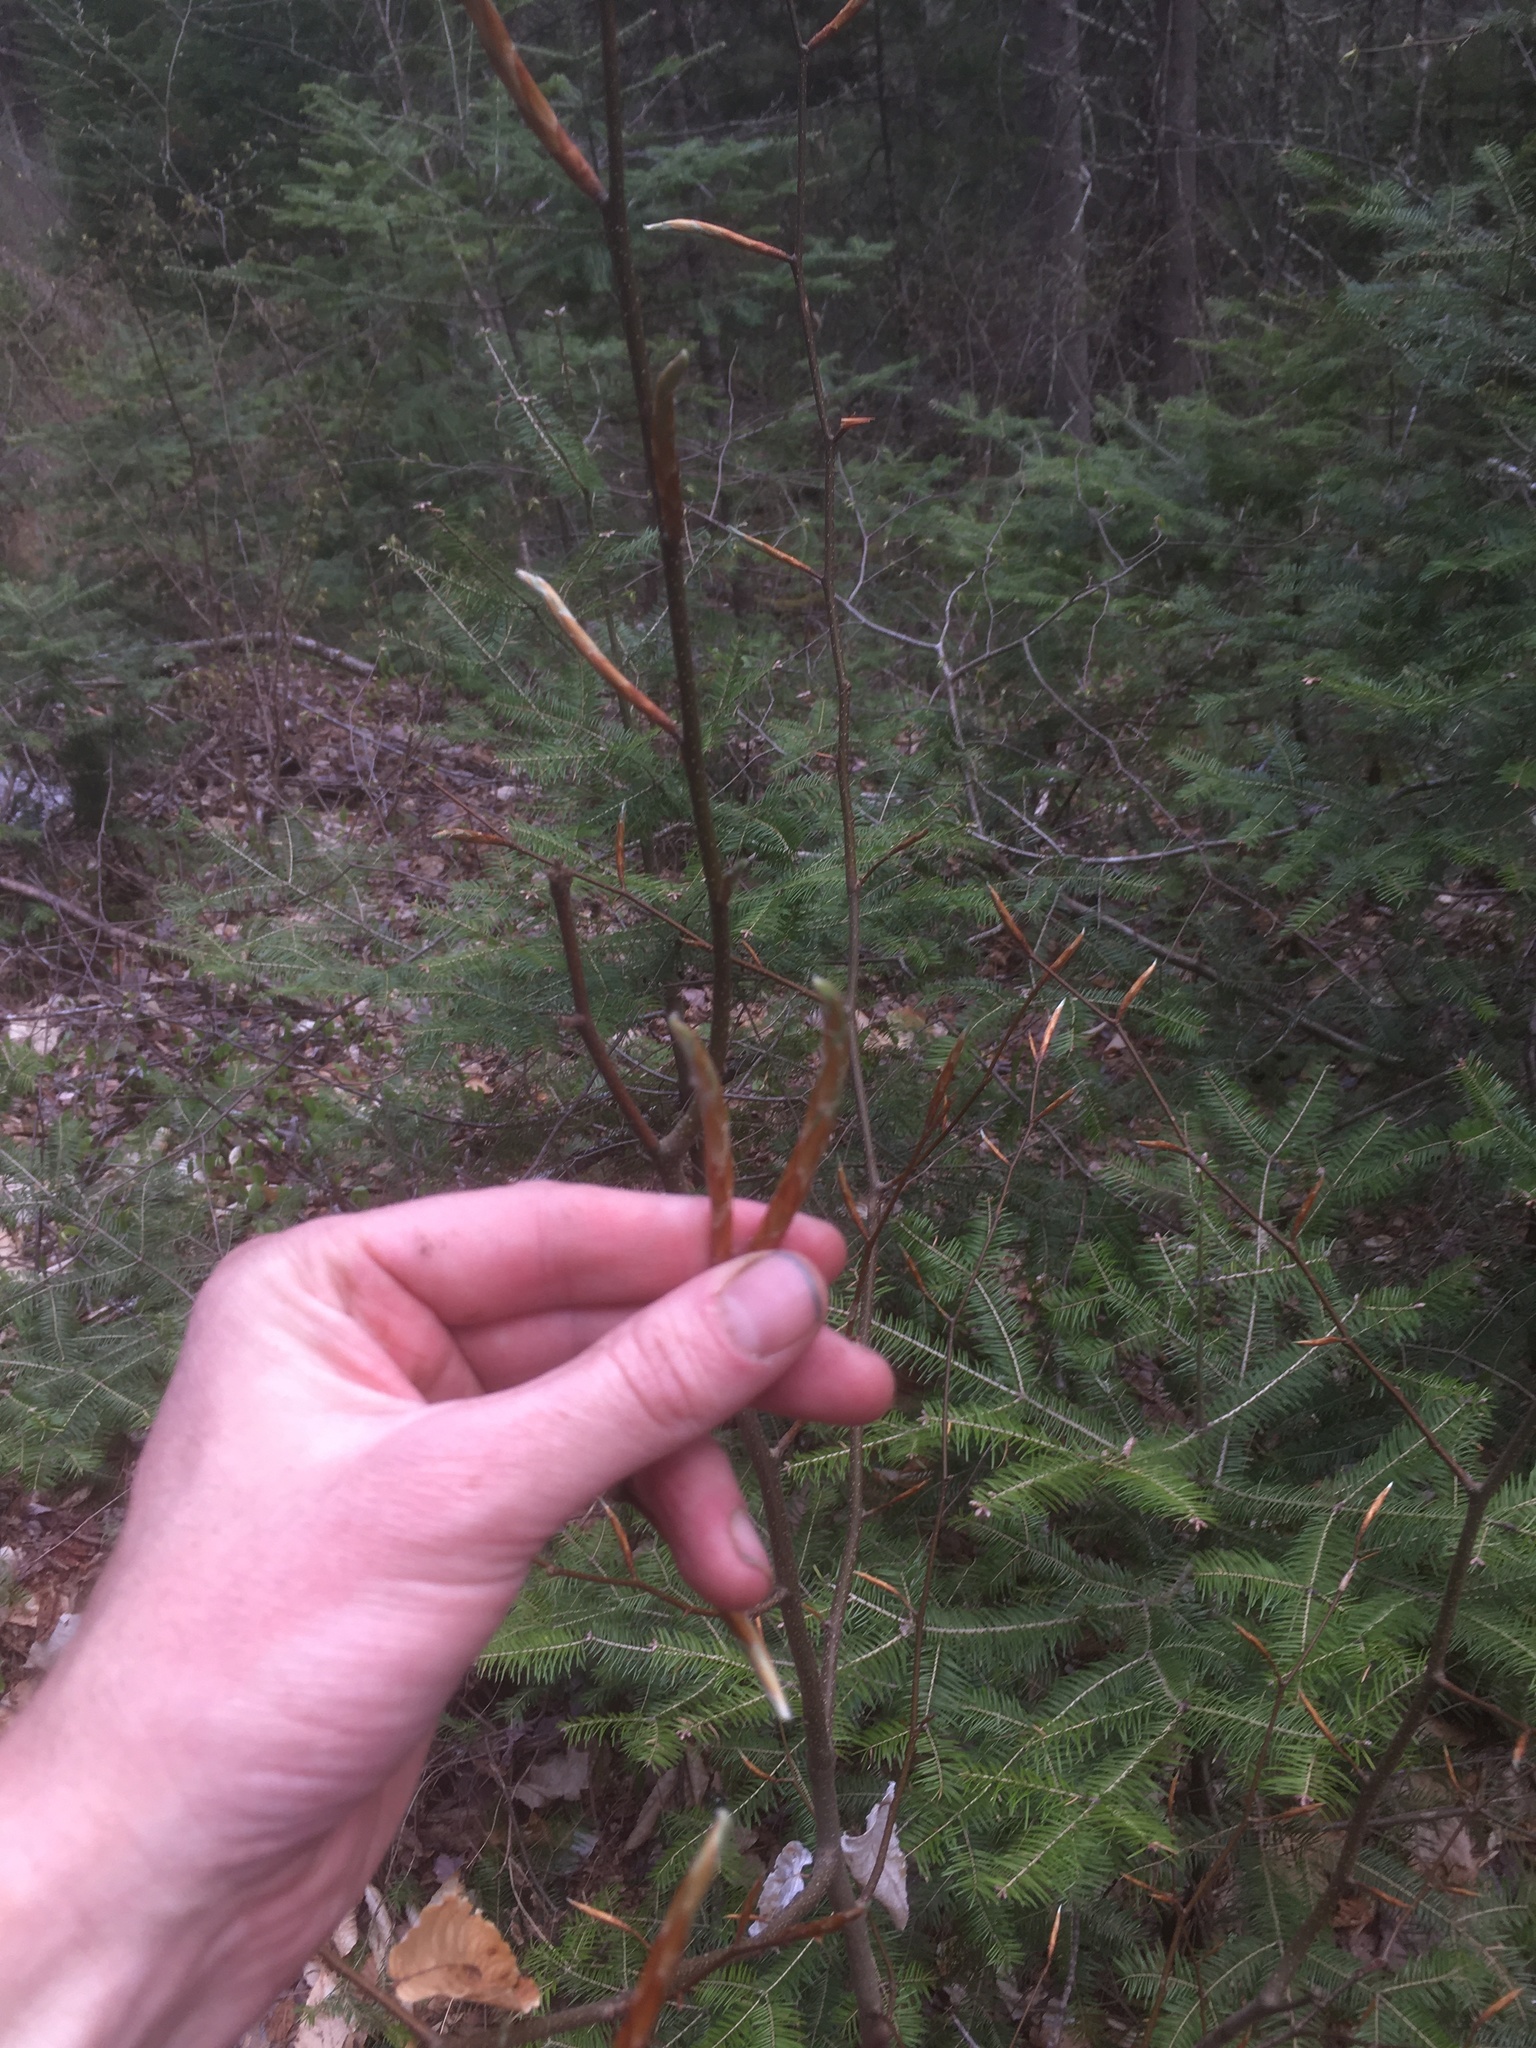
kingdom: Plantae
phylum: Tracheophyta
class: Magnoliopsida
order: Fagales
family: Fagaceae
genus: Fagus
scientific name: Fagus grandifolia
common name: American beech
